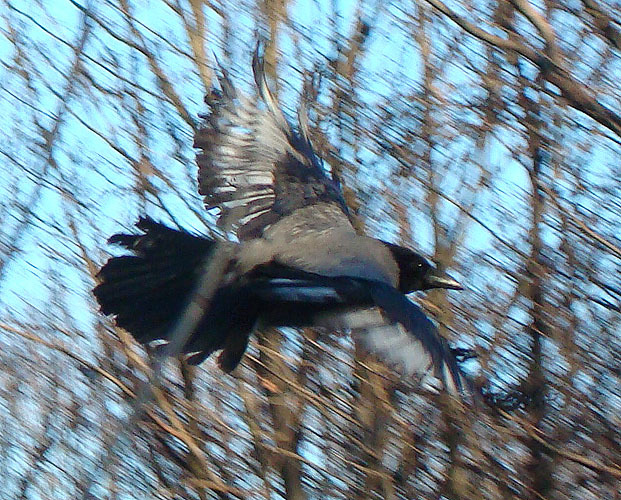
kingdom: Animalia
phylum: Chordata
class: Aves
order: Passeriformes
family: Corvidae
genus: Corvus
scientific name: Corvus cornix
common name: Hooded crow
